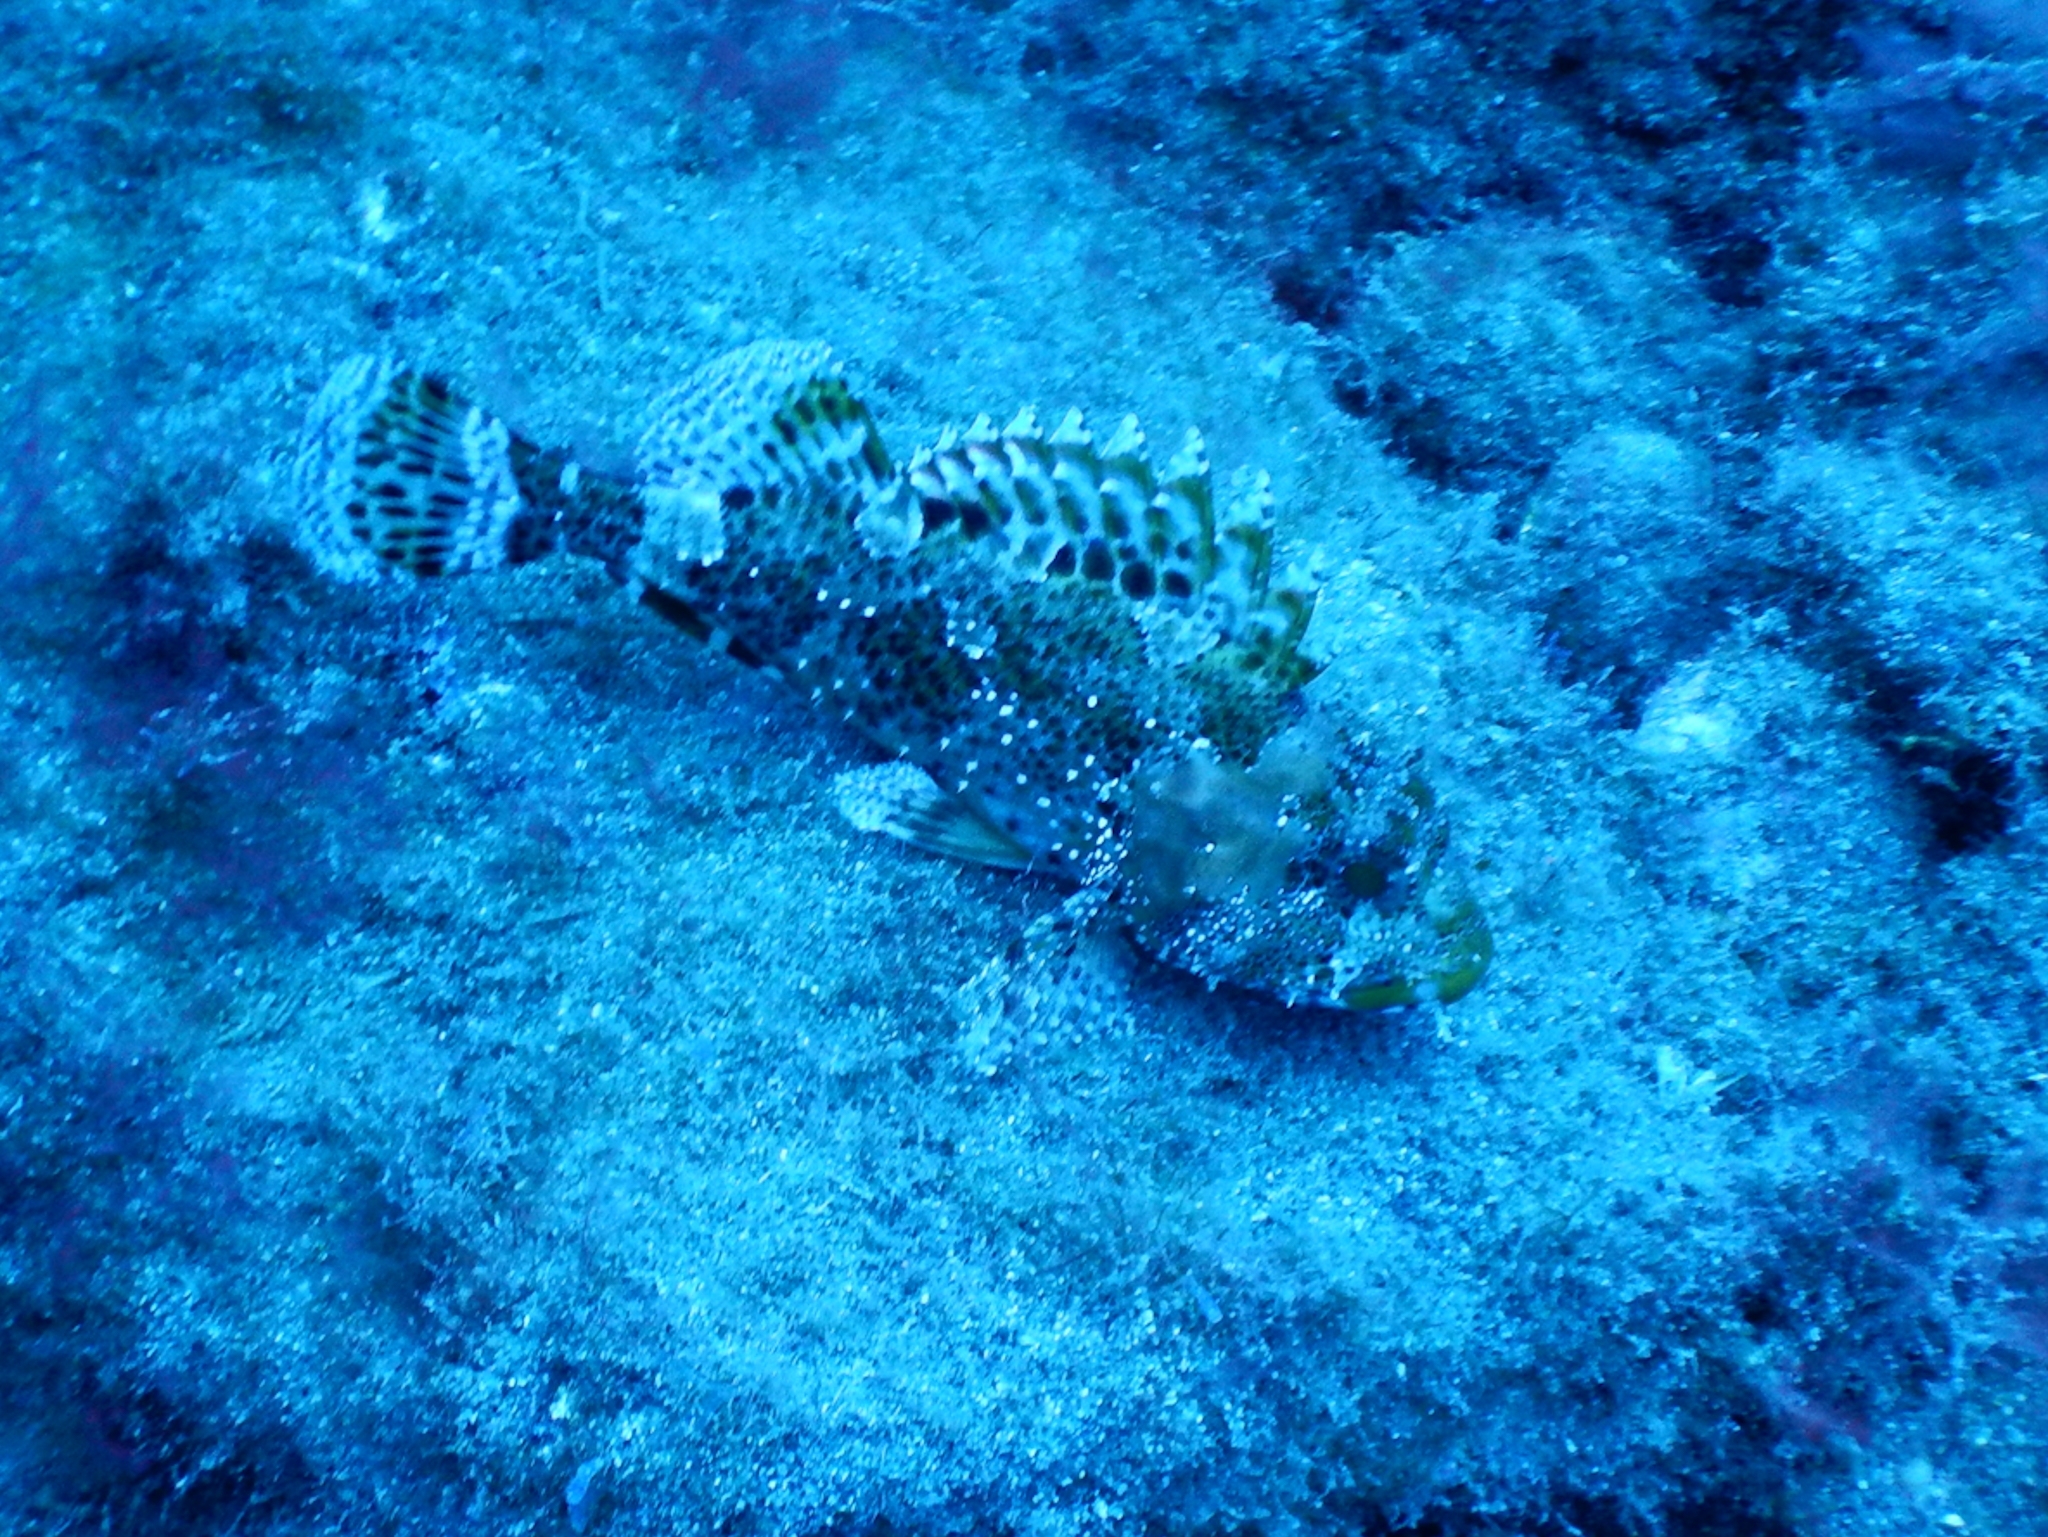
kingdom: Animalia
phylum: Chordata
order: Scorpaeniformes
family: Scorpaenidae
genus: Scorpaena
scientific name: Scorpaena maderensis
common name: Madeira rockfish
